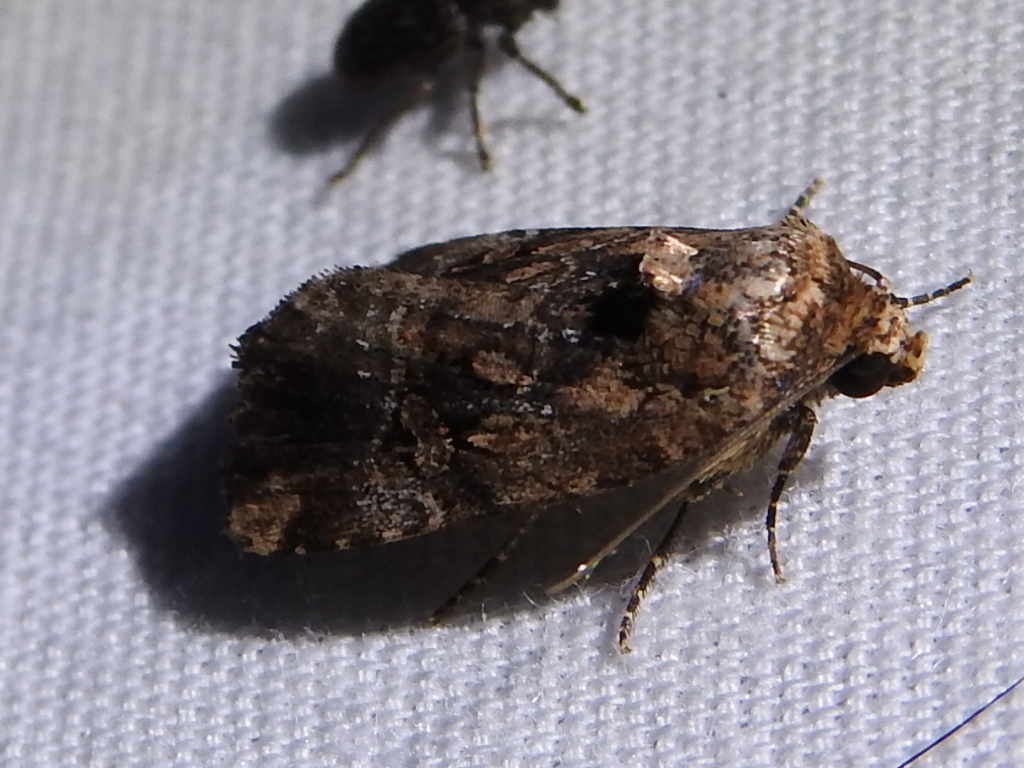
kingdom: Animalia
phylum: Arthropoda
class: Insecta
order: Lepidoptera
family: Noctuidae
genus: Elaphria
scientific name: Elaphria chalcedonia
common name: Chalcedony midget
